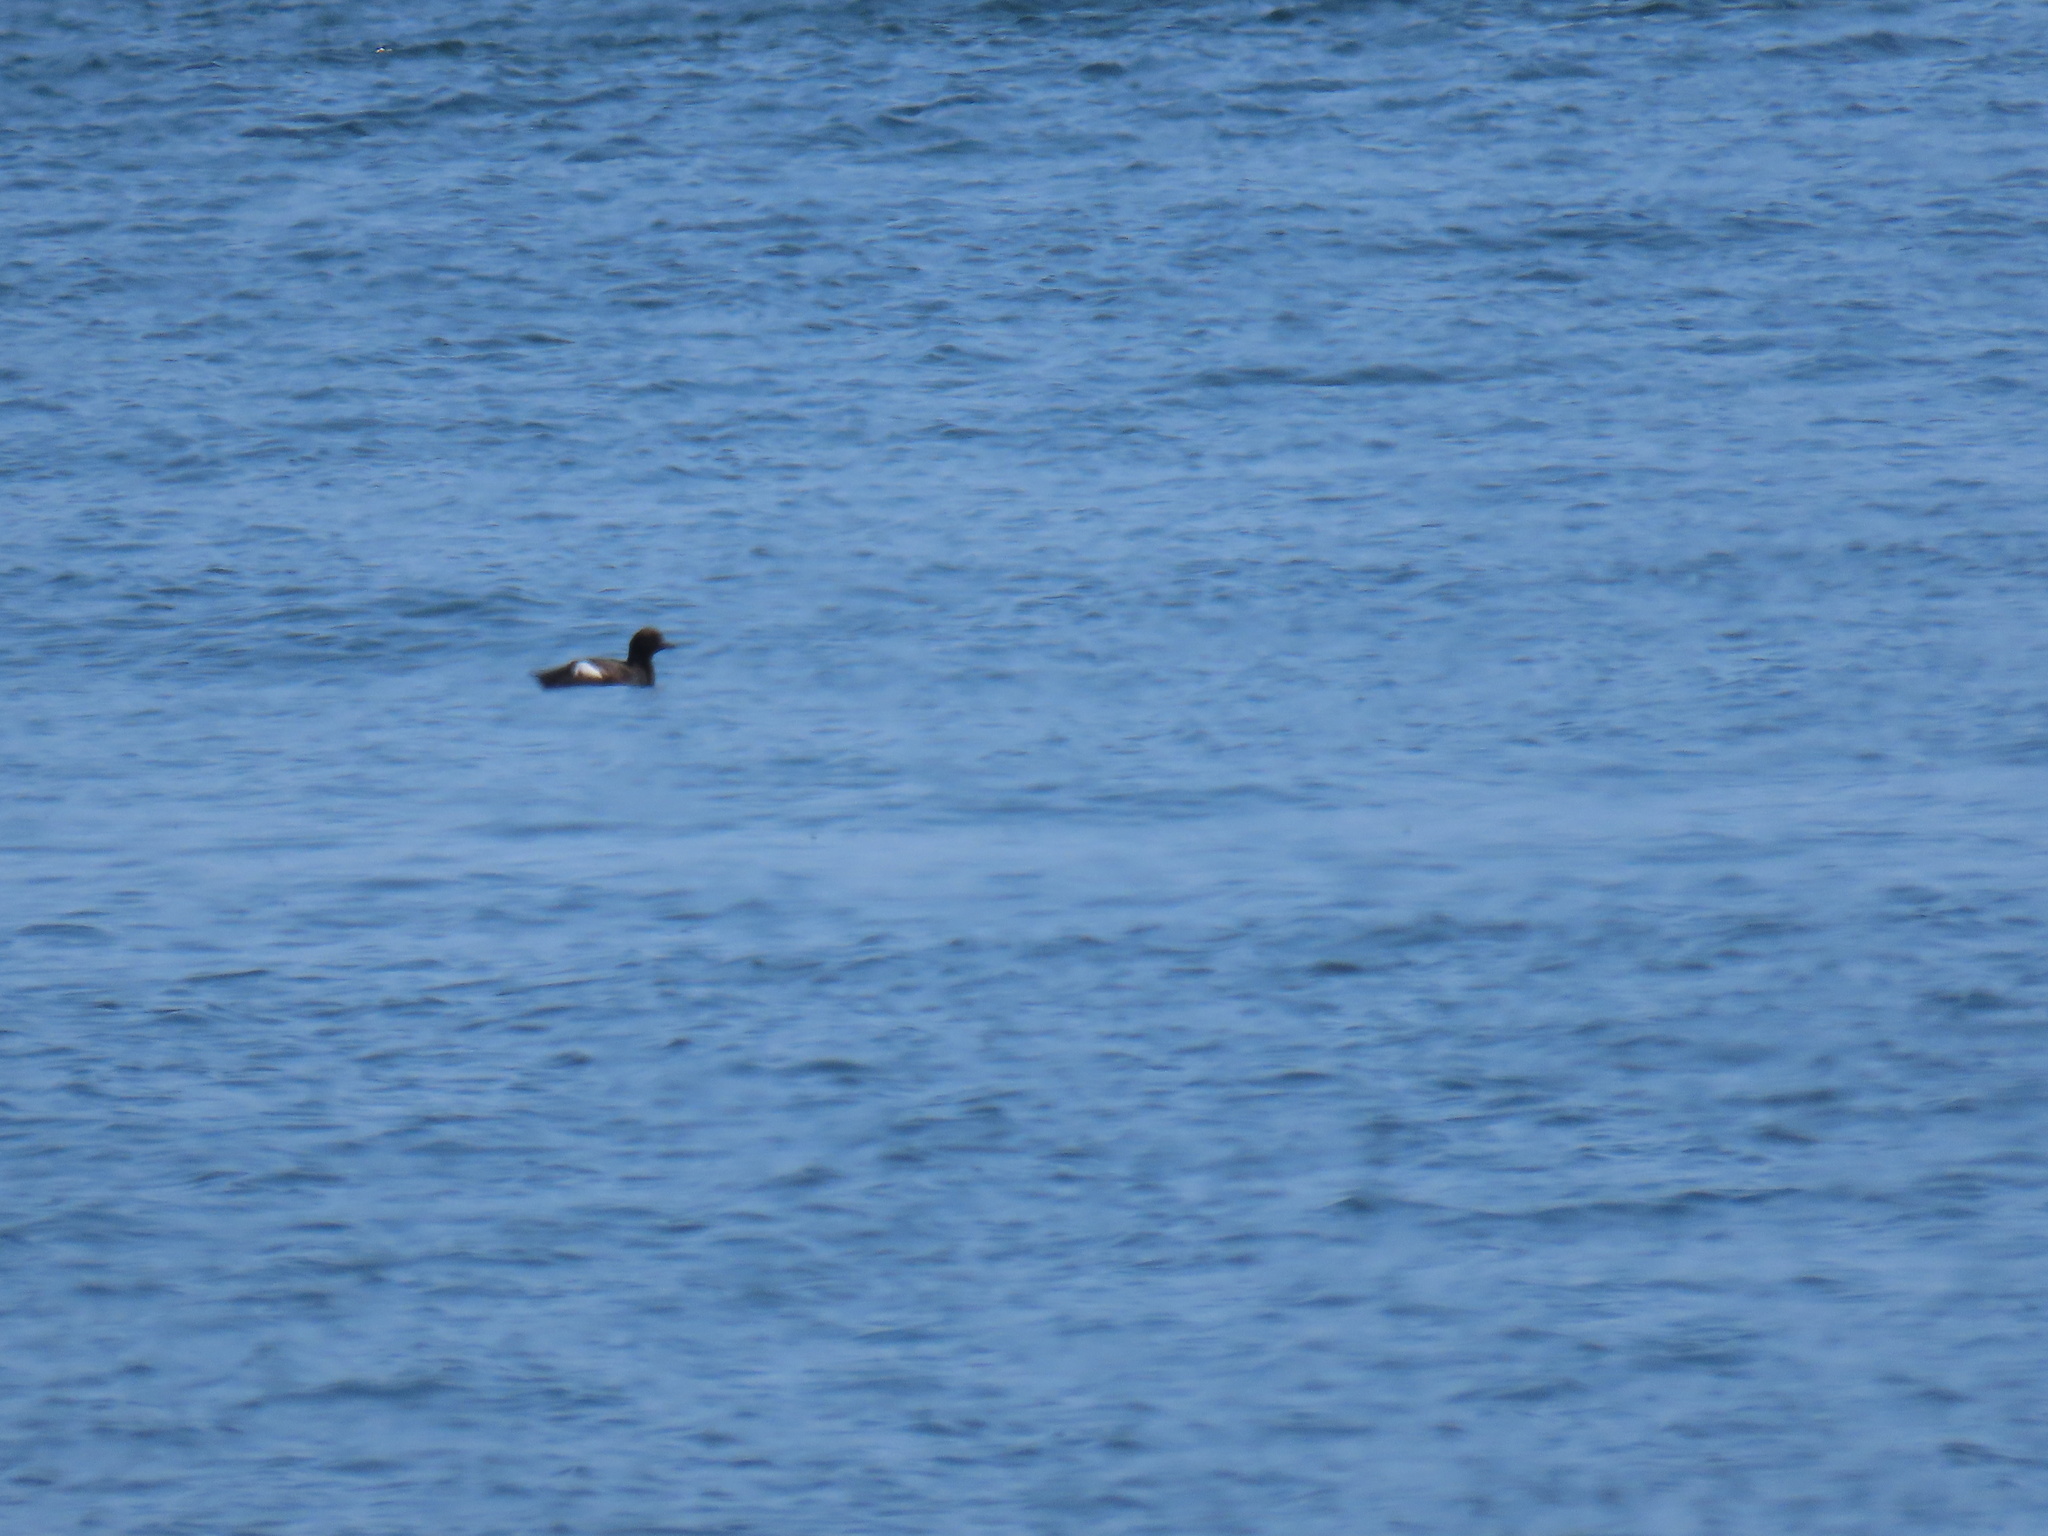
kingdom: Animalia
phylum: Chordata
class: Aves
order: Charadriiformes
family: Alcidae
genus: Cepphus
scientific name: Cepphus columba
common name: Pigeon guillemot
